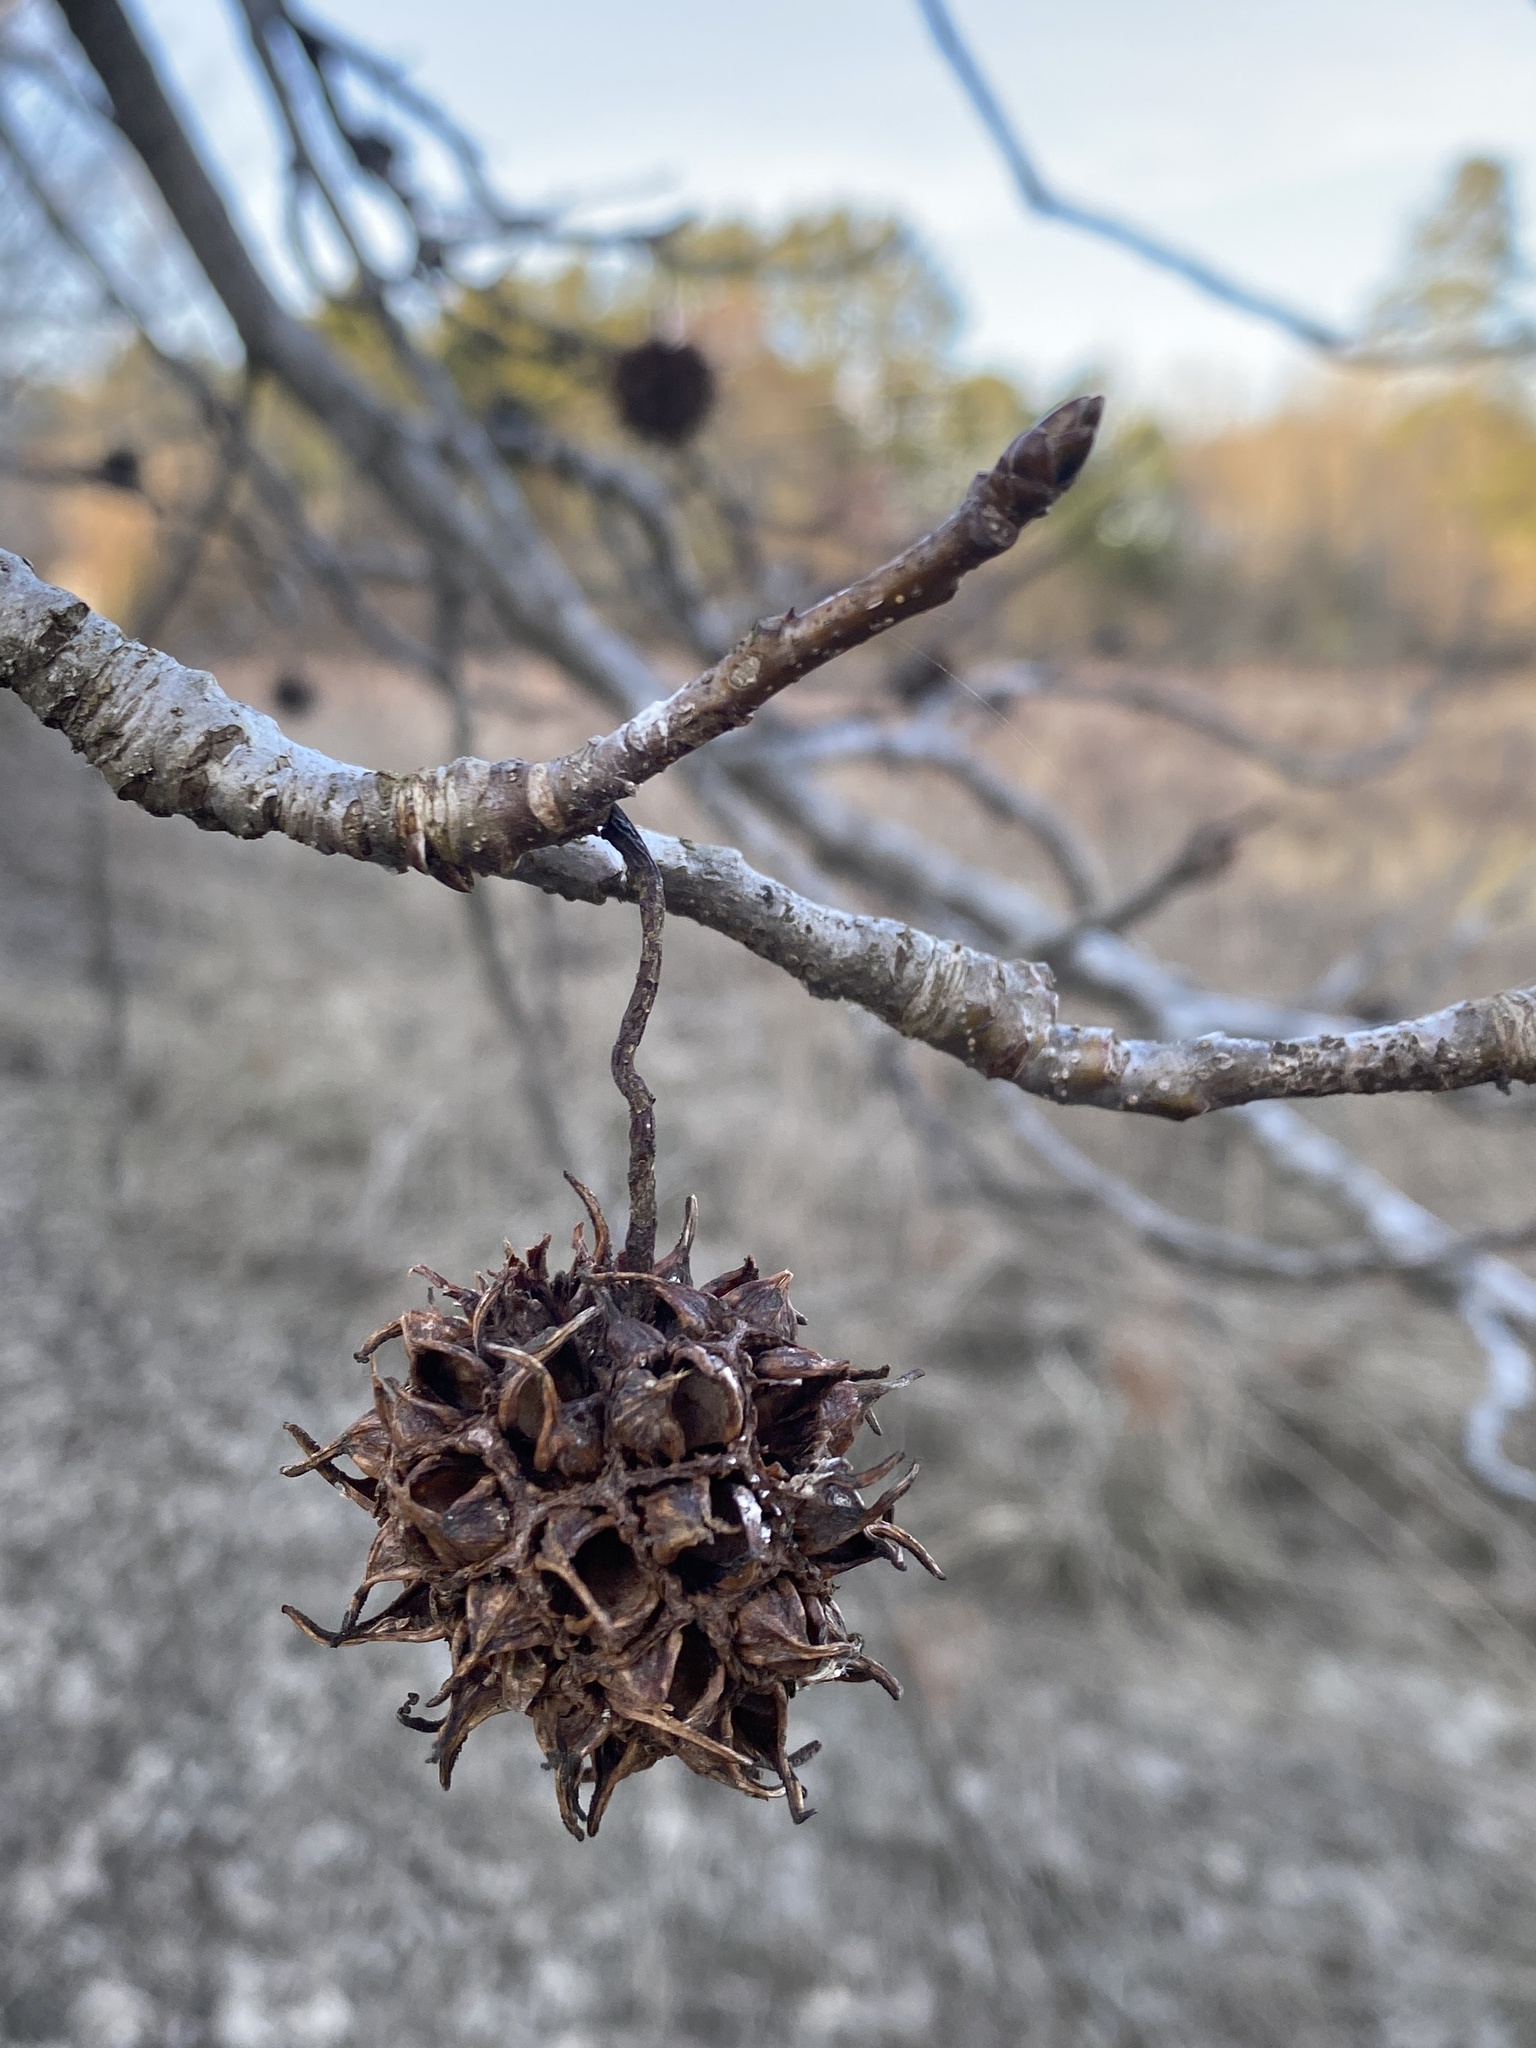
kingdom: Plantae
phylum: Tracheophyta
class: Magnoliopsida
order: Saxifragales
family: Altingiaceae
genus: Liquidambar
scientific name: Liquidambar styraciflua
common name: Sweet gum
